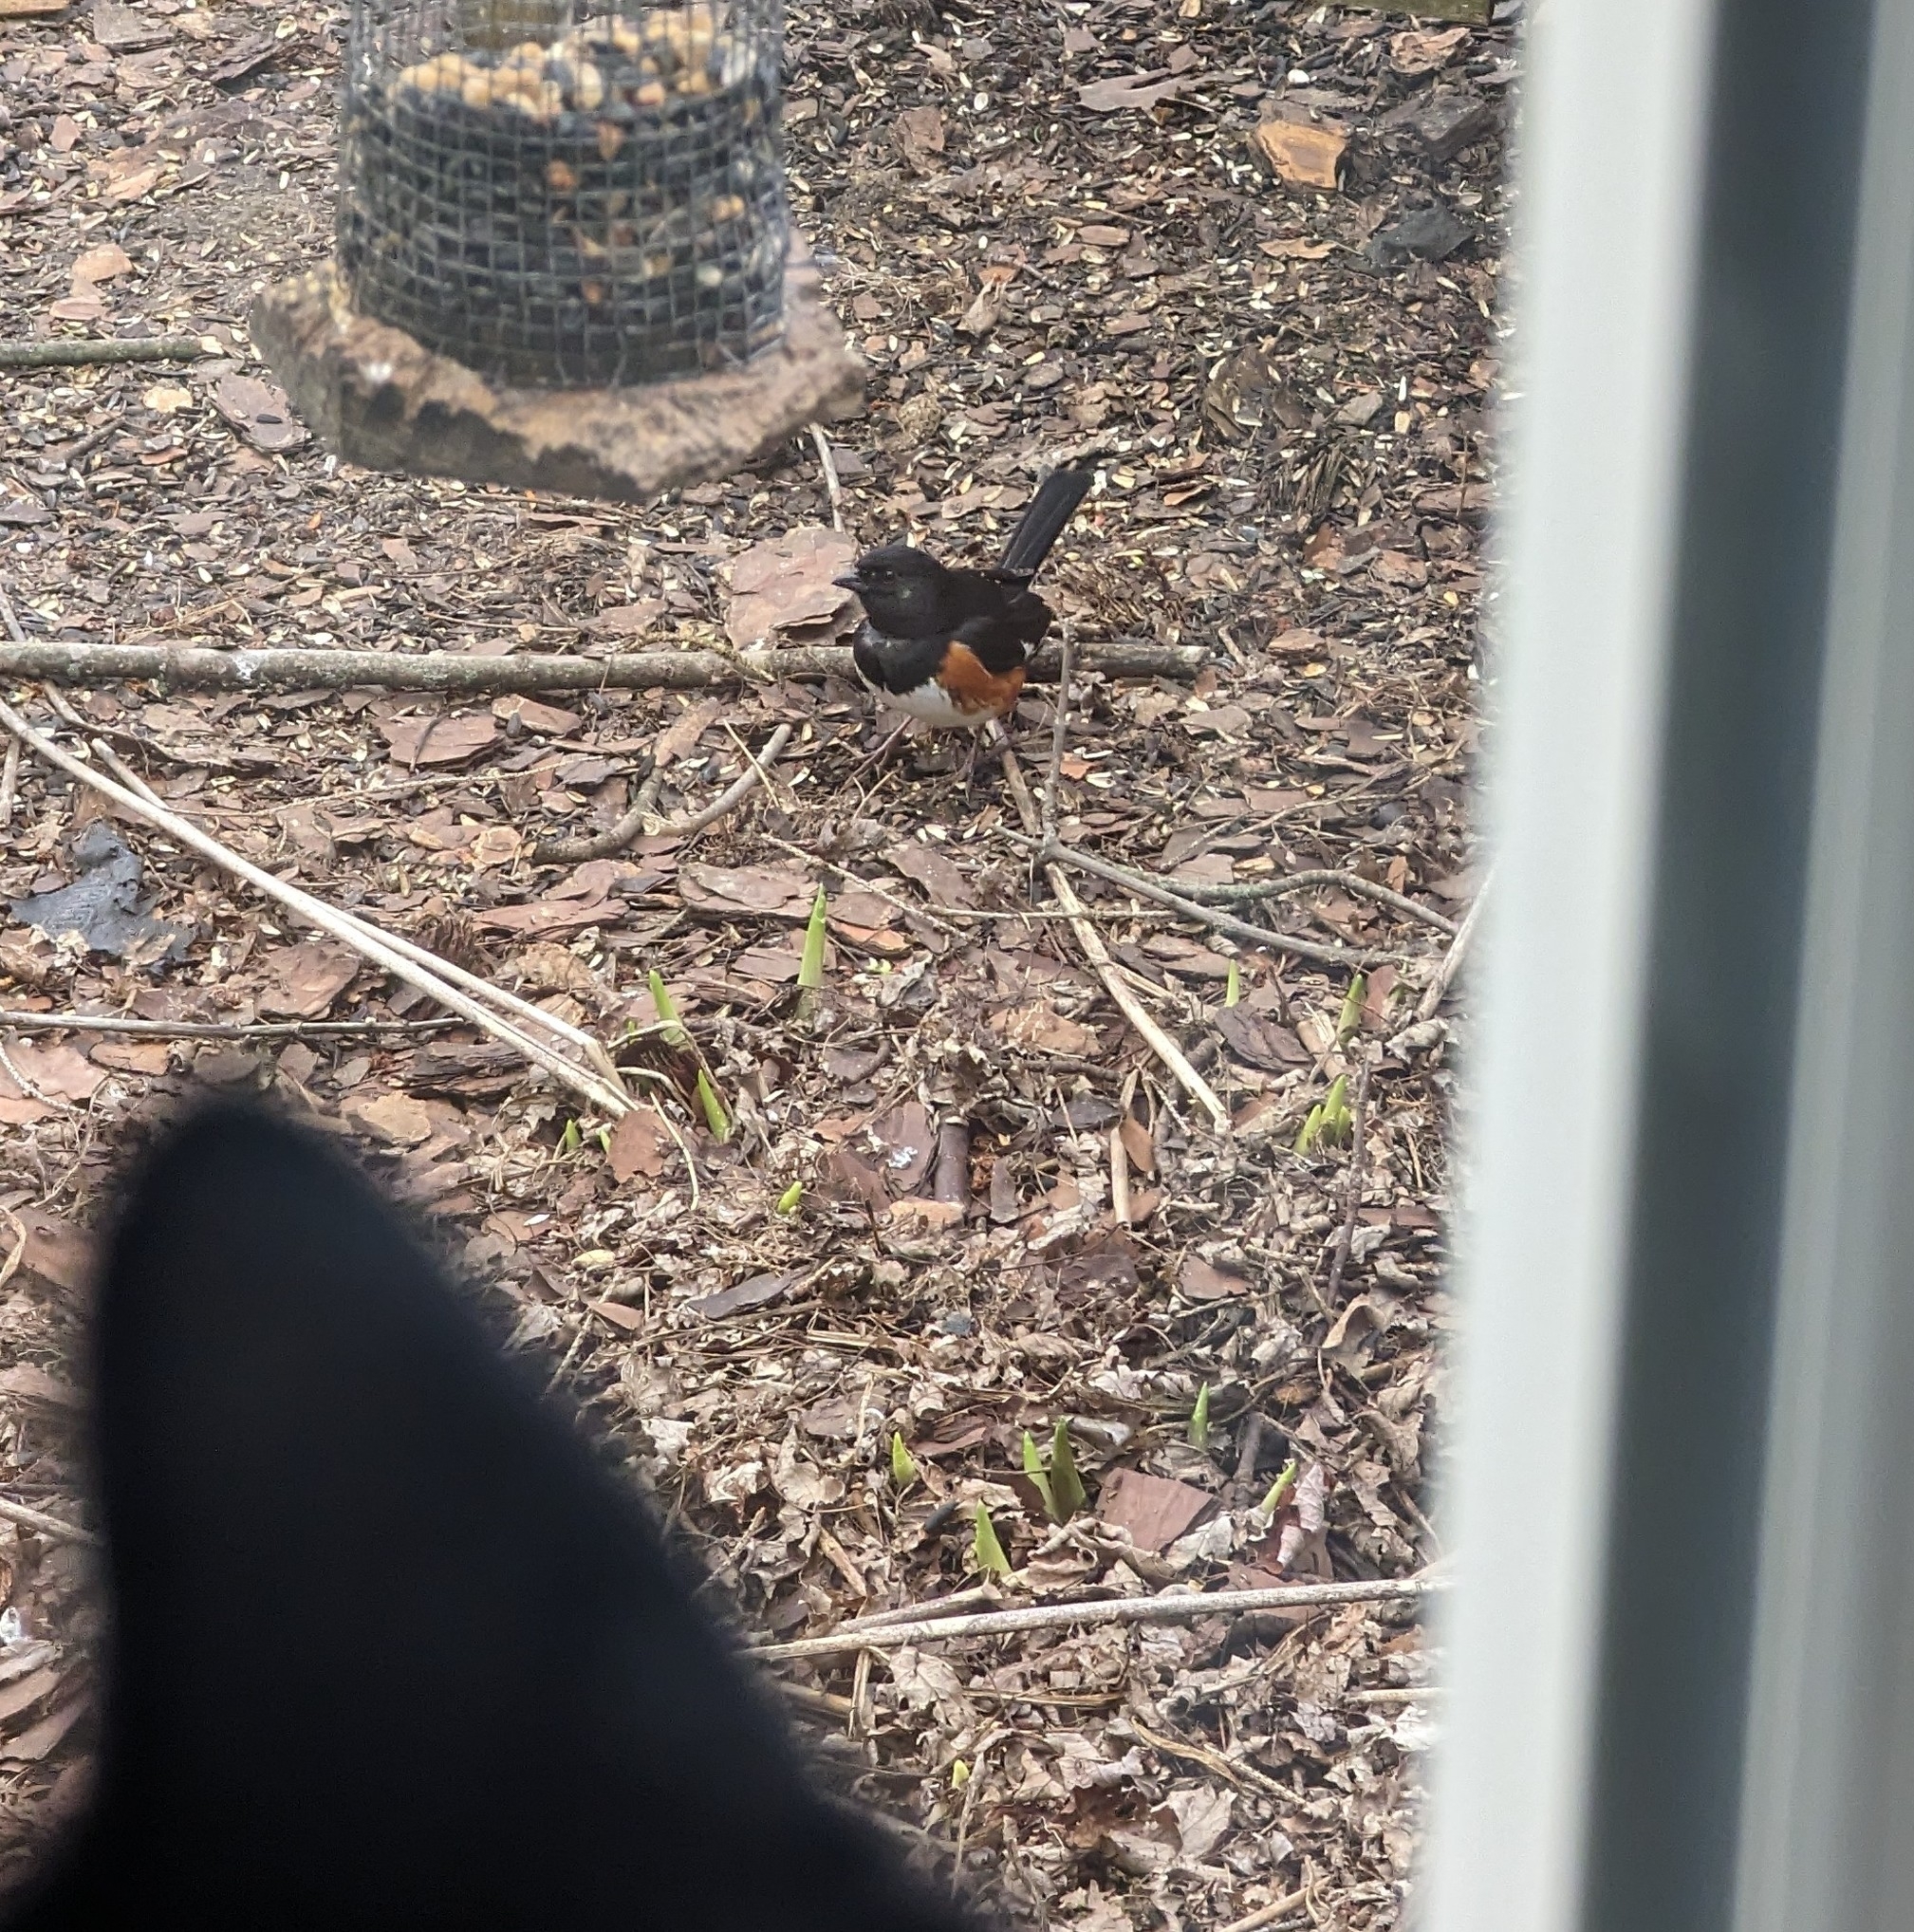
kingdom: Animalia
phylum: Chordata
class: Aves
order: Passeriformes
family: Passerellidae
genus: Pipilo
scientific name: Pipilo erythrophthalmus
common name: Eastern towhee
